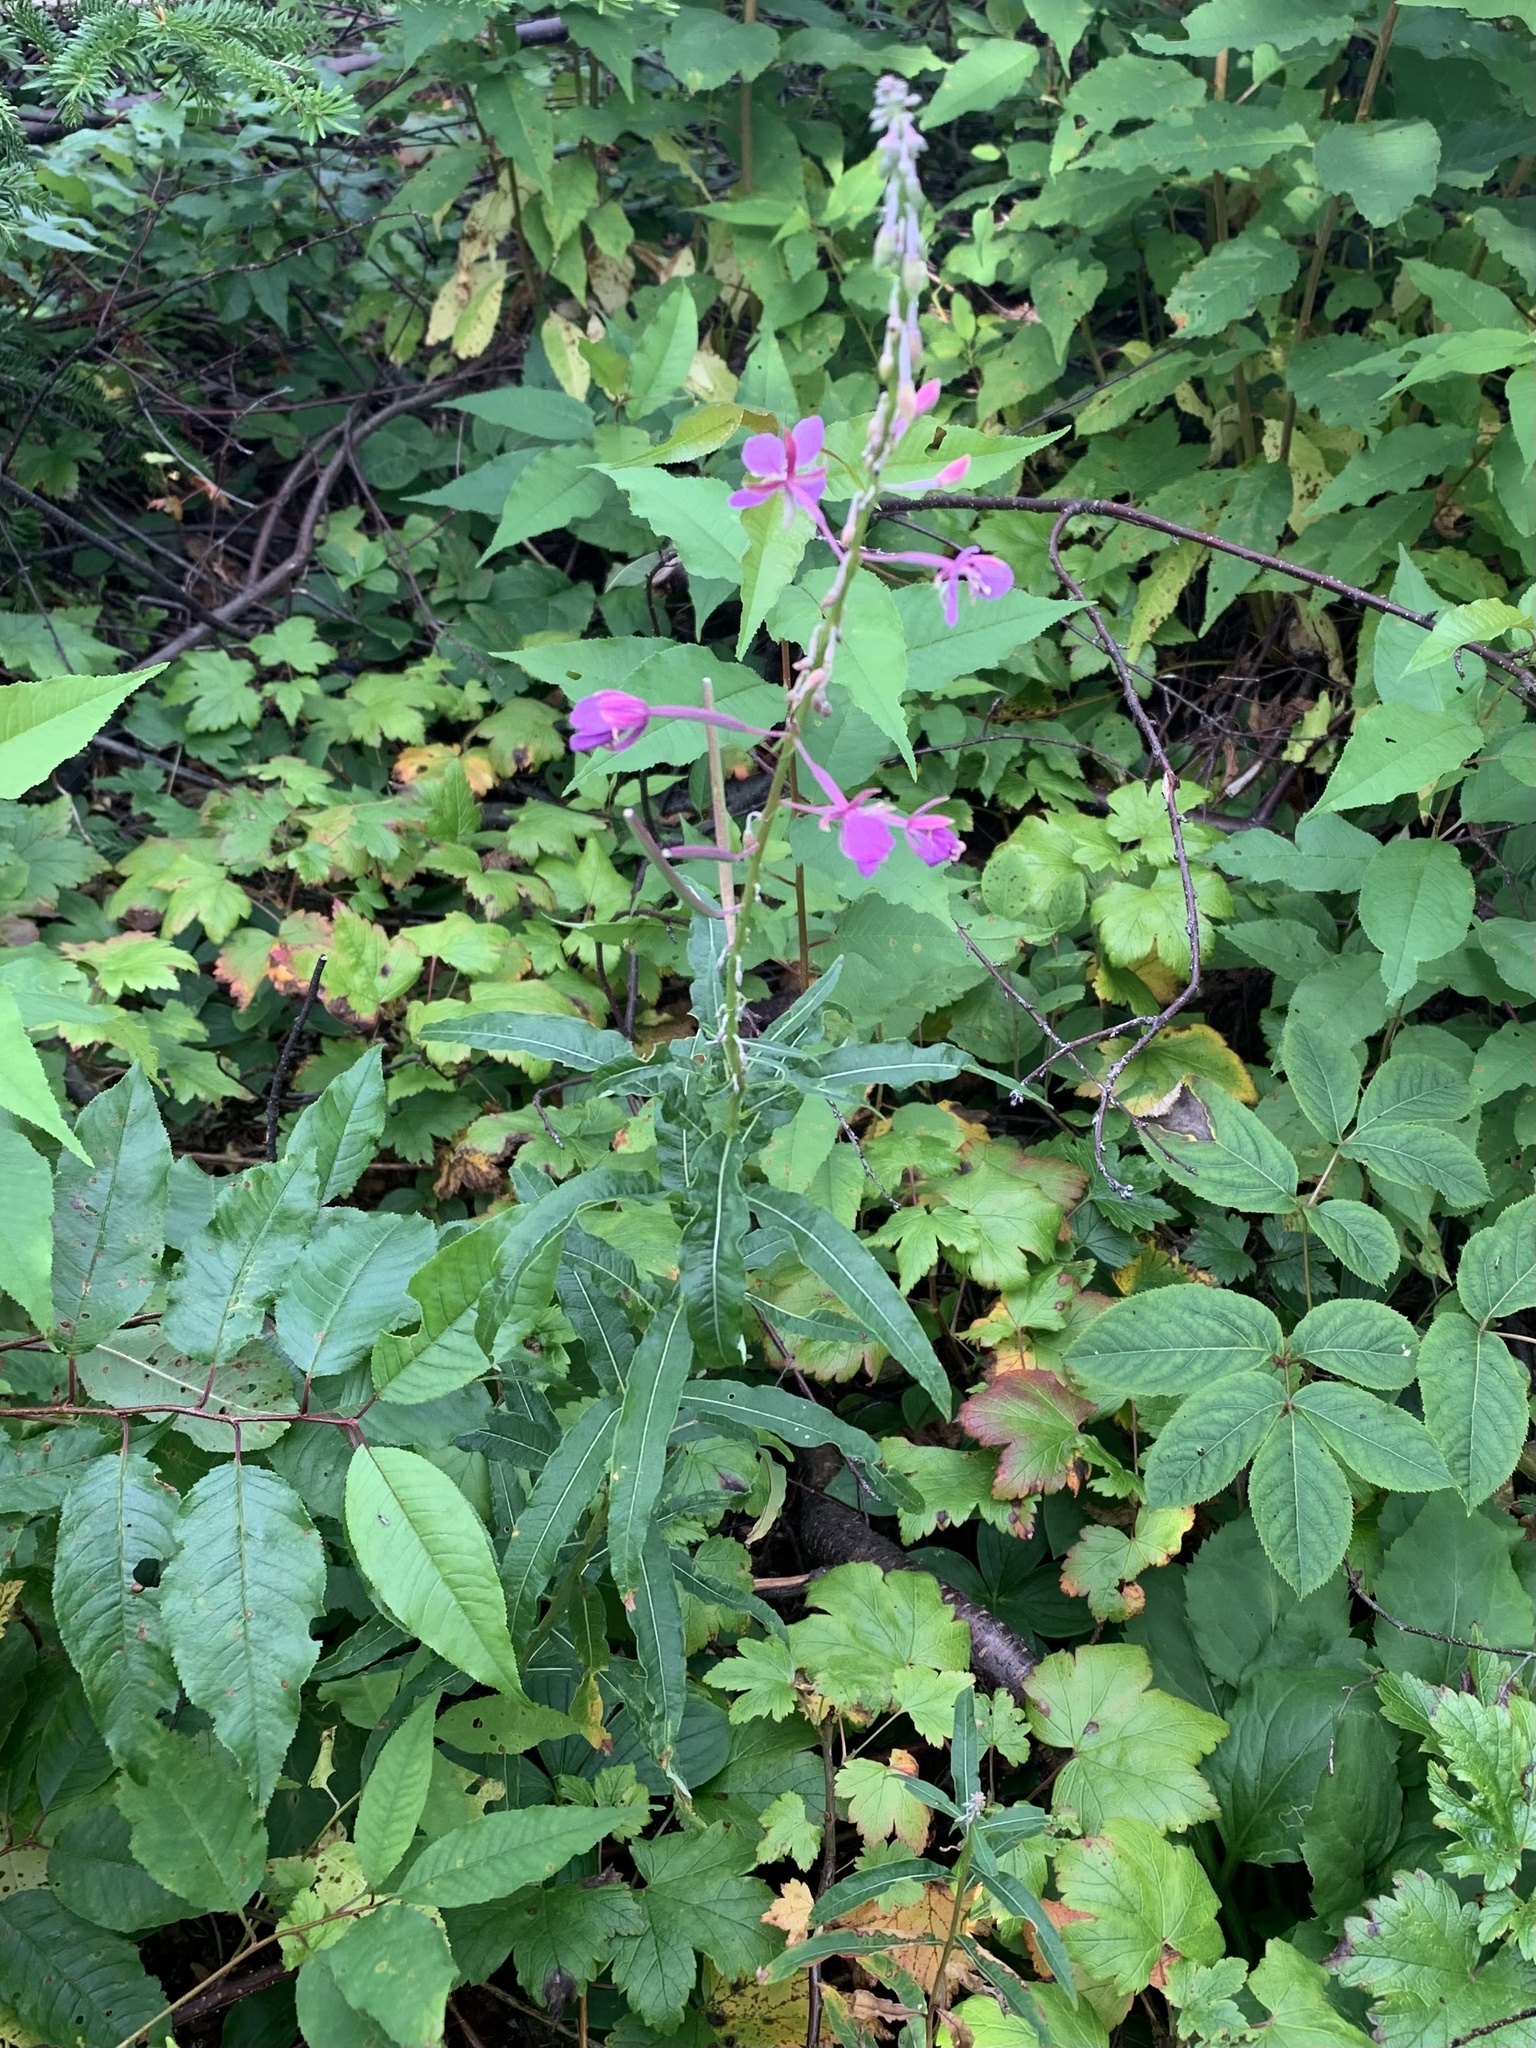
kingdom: Plantae
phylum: Tracheophyta
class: Magnoliopsida
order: Myrtales
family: Onagraceae
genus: Chamaenerion
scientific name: Chamaenerion angustifolium
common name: Fireweed
